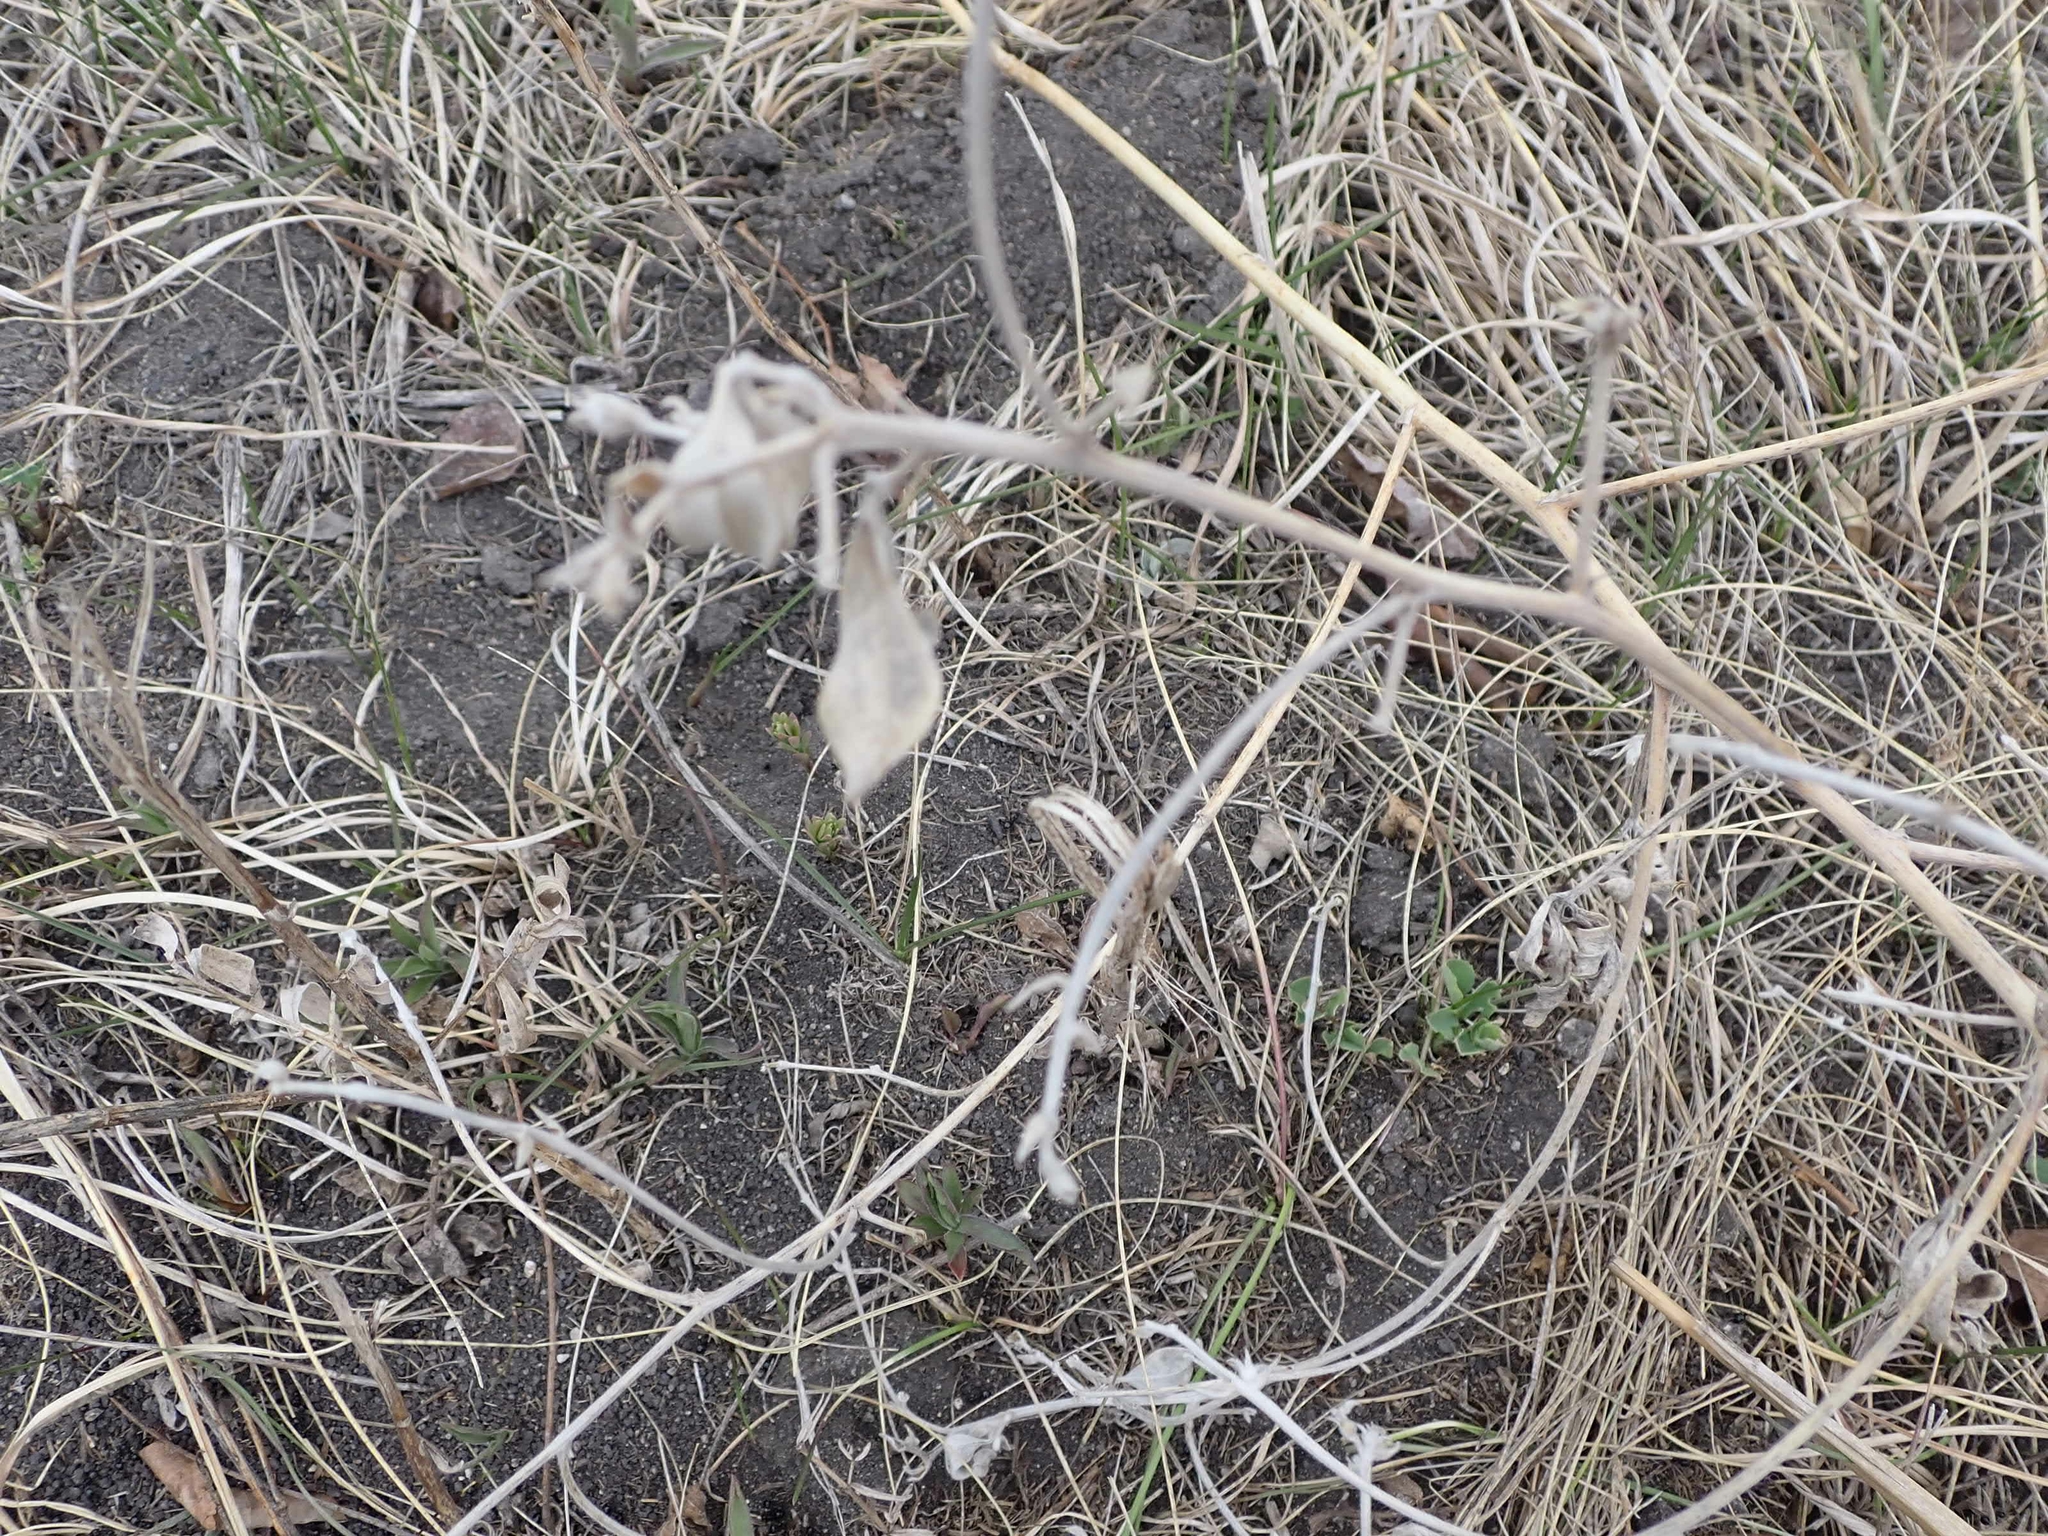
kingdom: Plantae
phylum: Tracheophyta
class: Magnoliopsida
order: Fabales
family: Fabaceae
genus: Pediomelum
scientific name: Pediomelum argophyllum
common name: Silver-leaved indian breadroot
